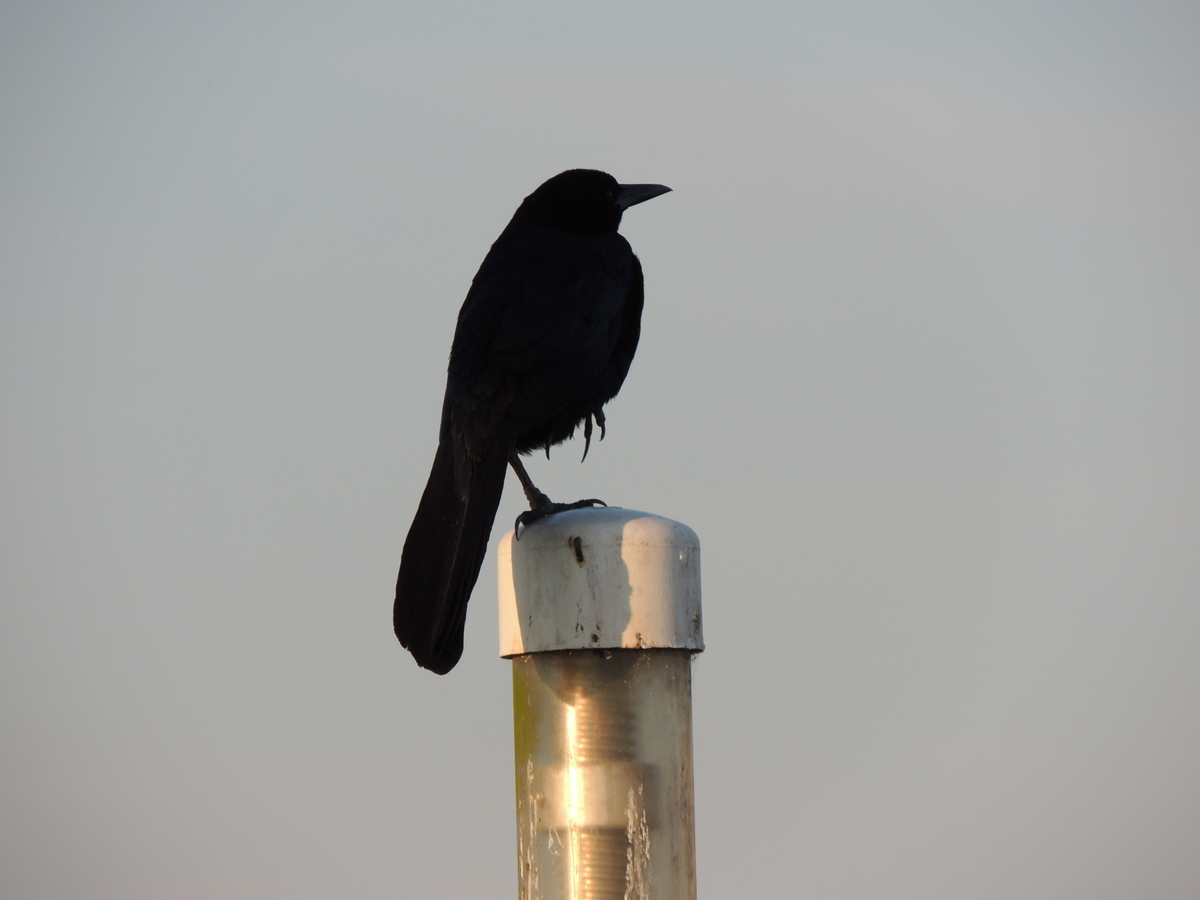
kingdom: Animalia
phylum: Chordata
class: Aves
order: Passeriformes
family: Icteridae
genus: Quiscalus
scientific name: Quiscalus major
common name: Boat-tailed grackle
